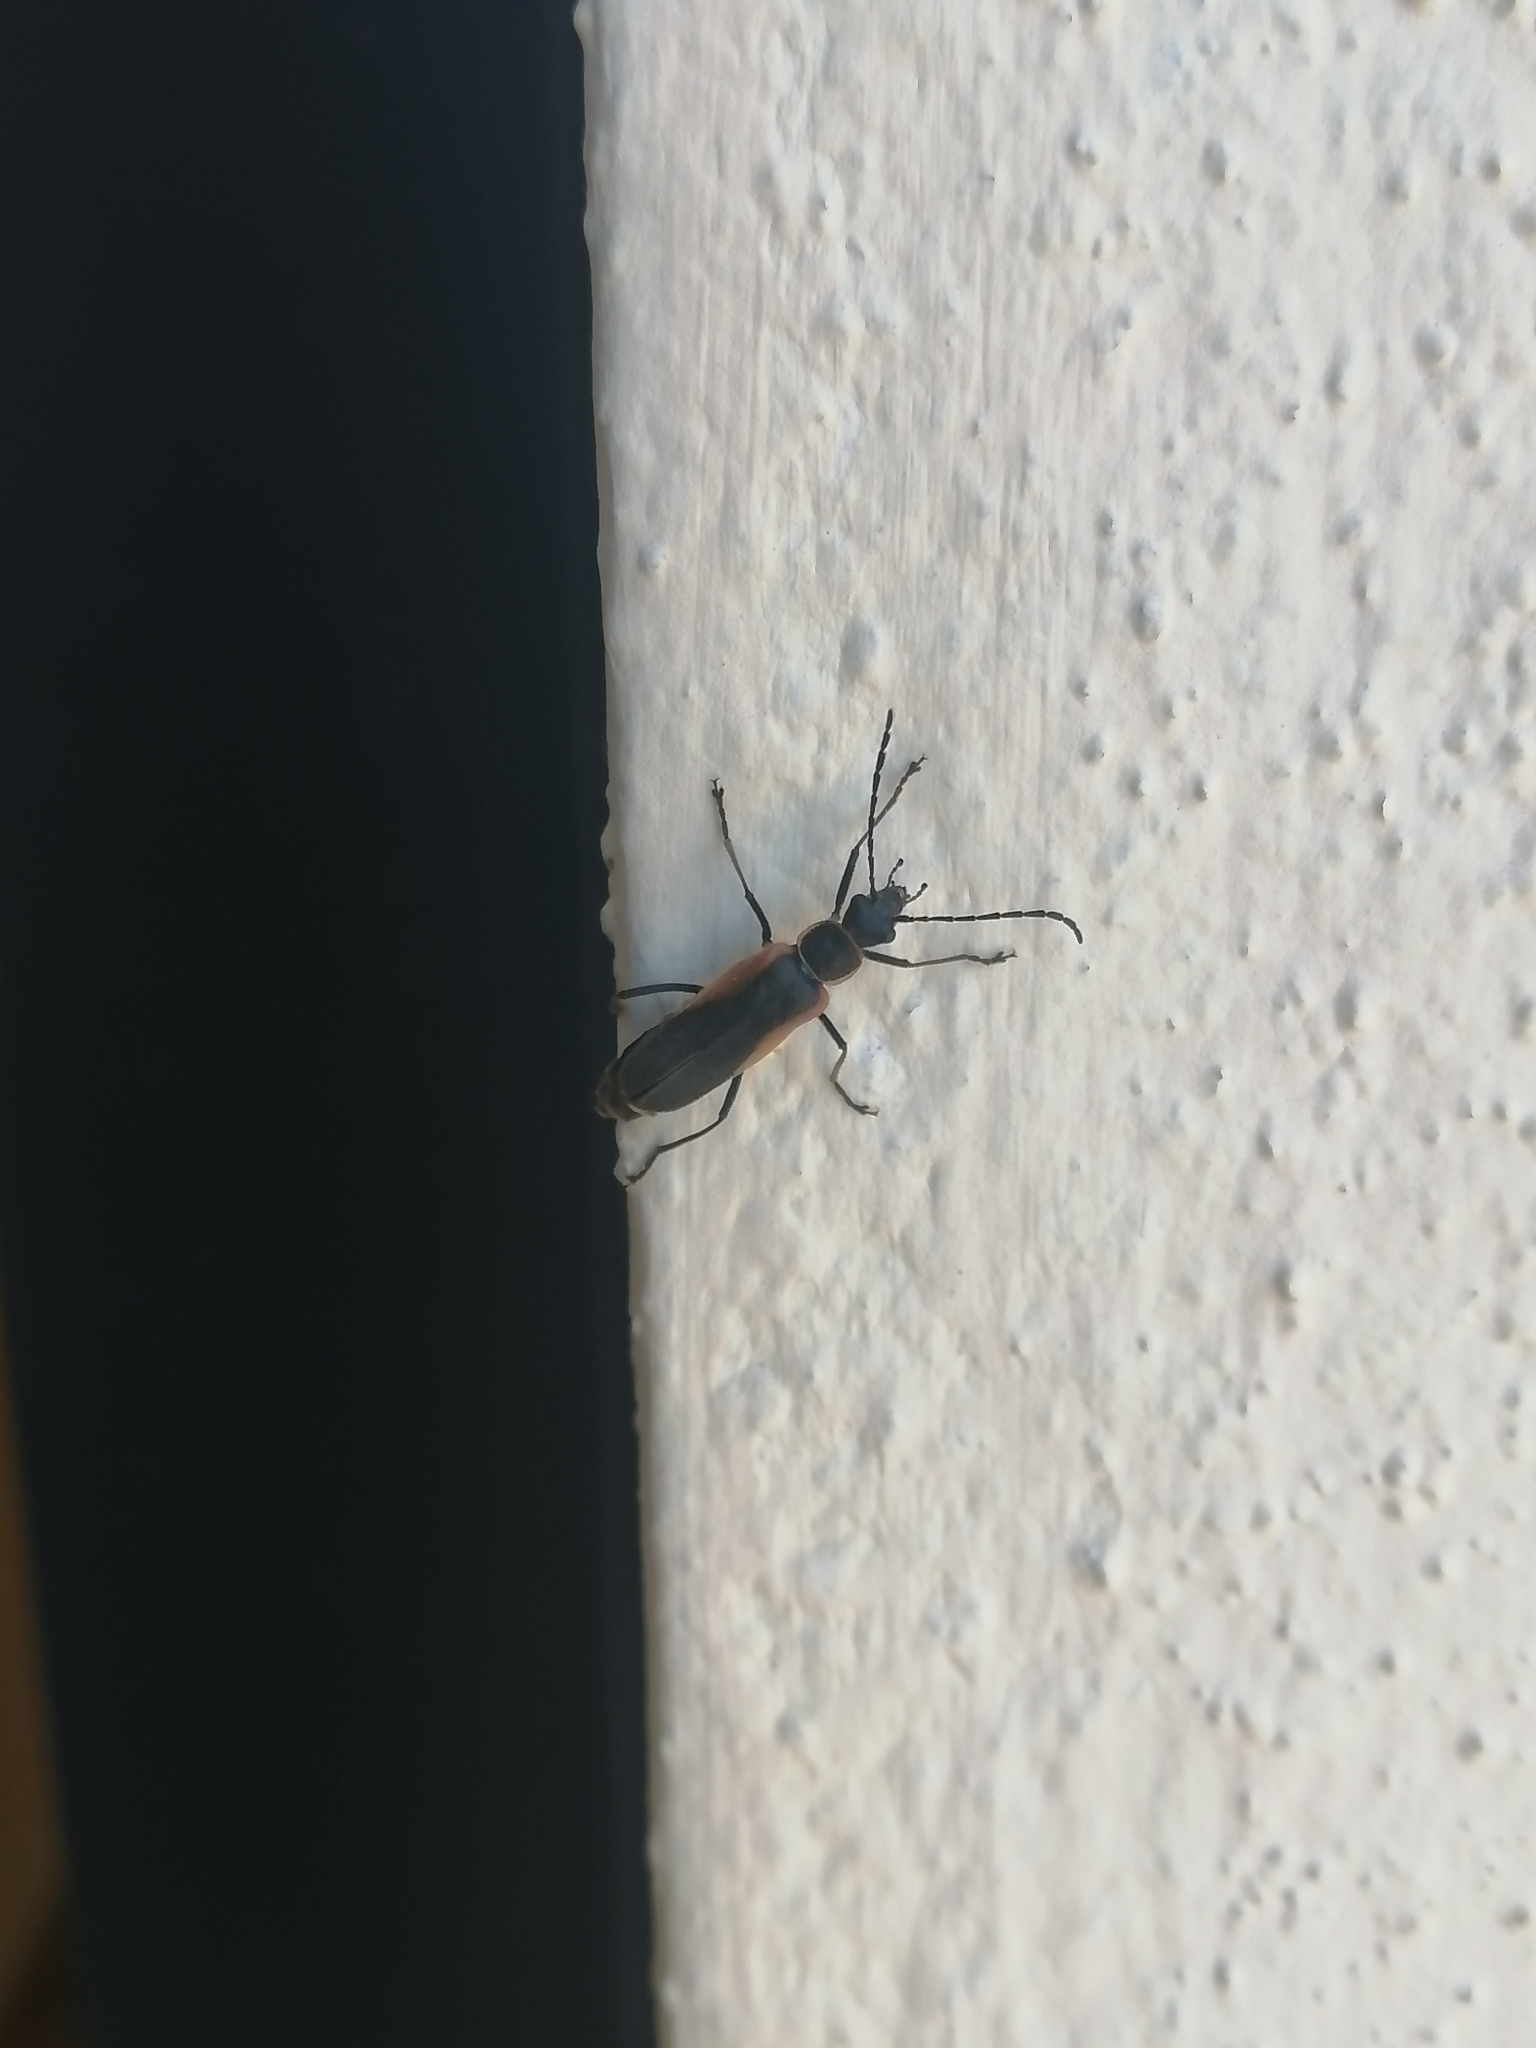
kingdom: Animalia
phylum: Arthropoda
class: Insecta
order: Coleoptera
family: Cantharidae
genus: Chauliognathus
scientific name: Chauliognathus limbicollis
